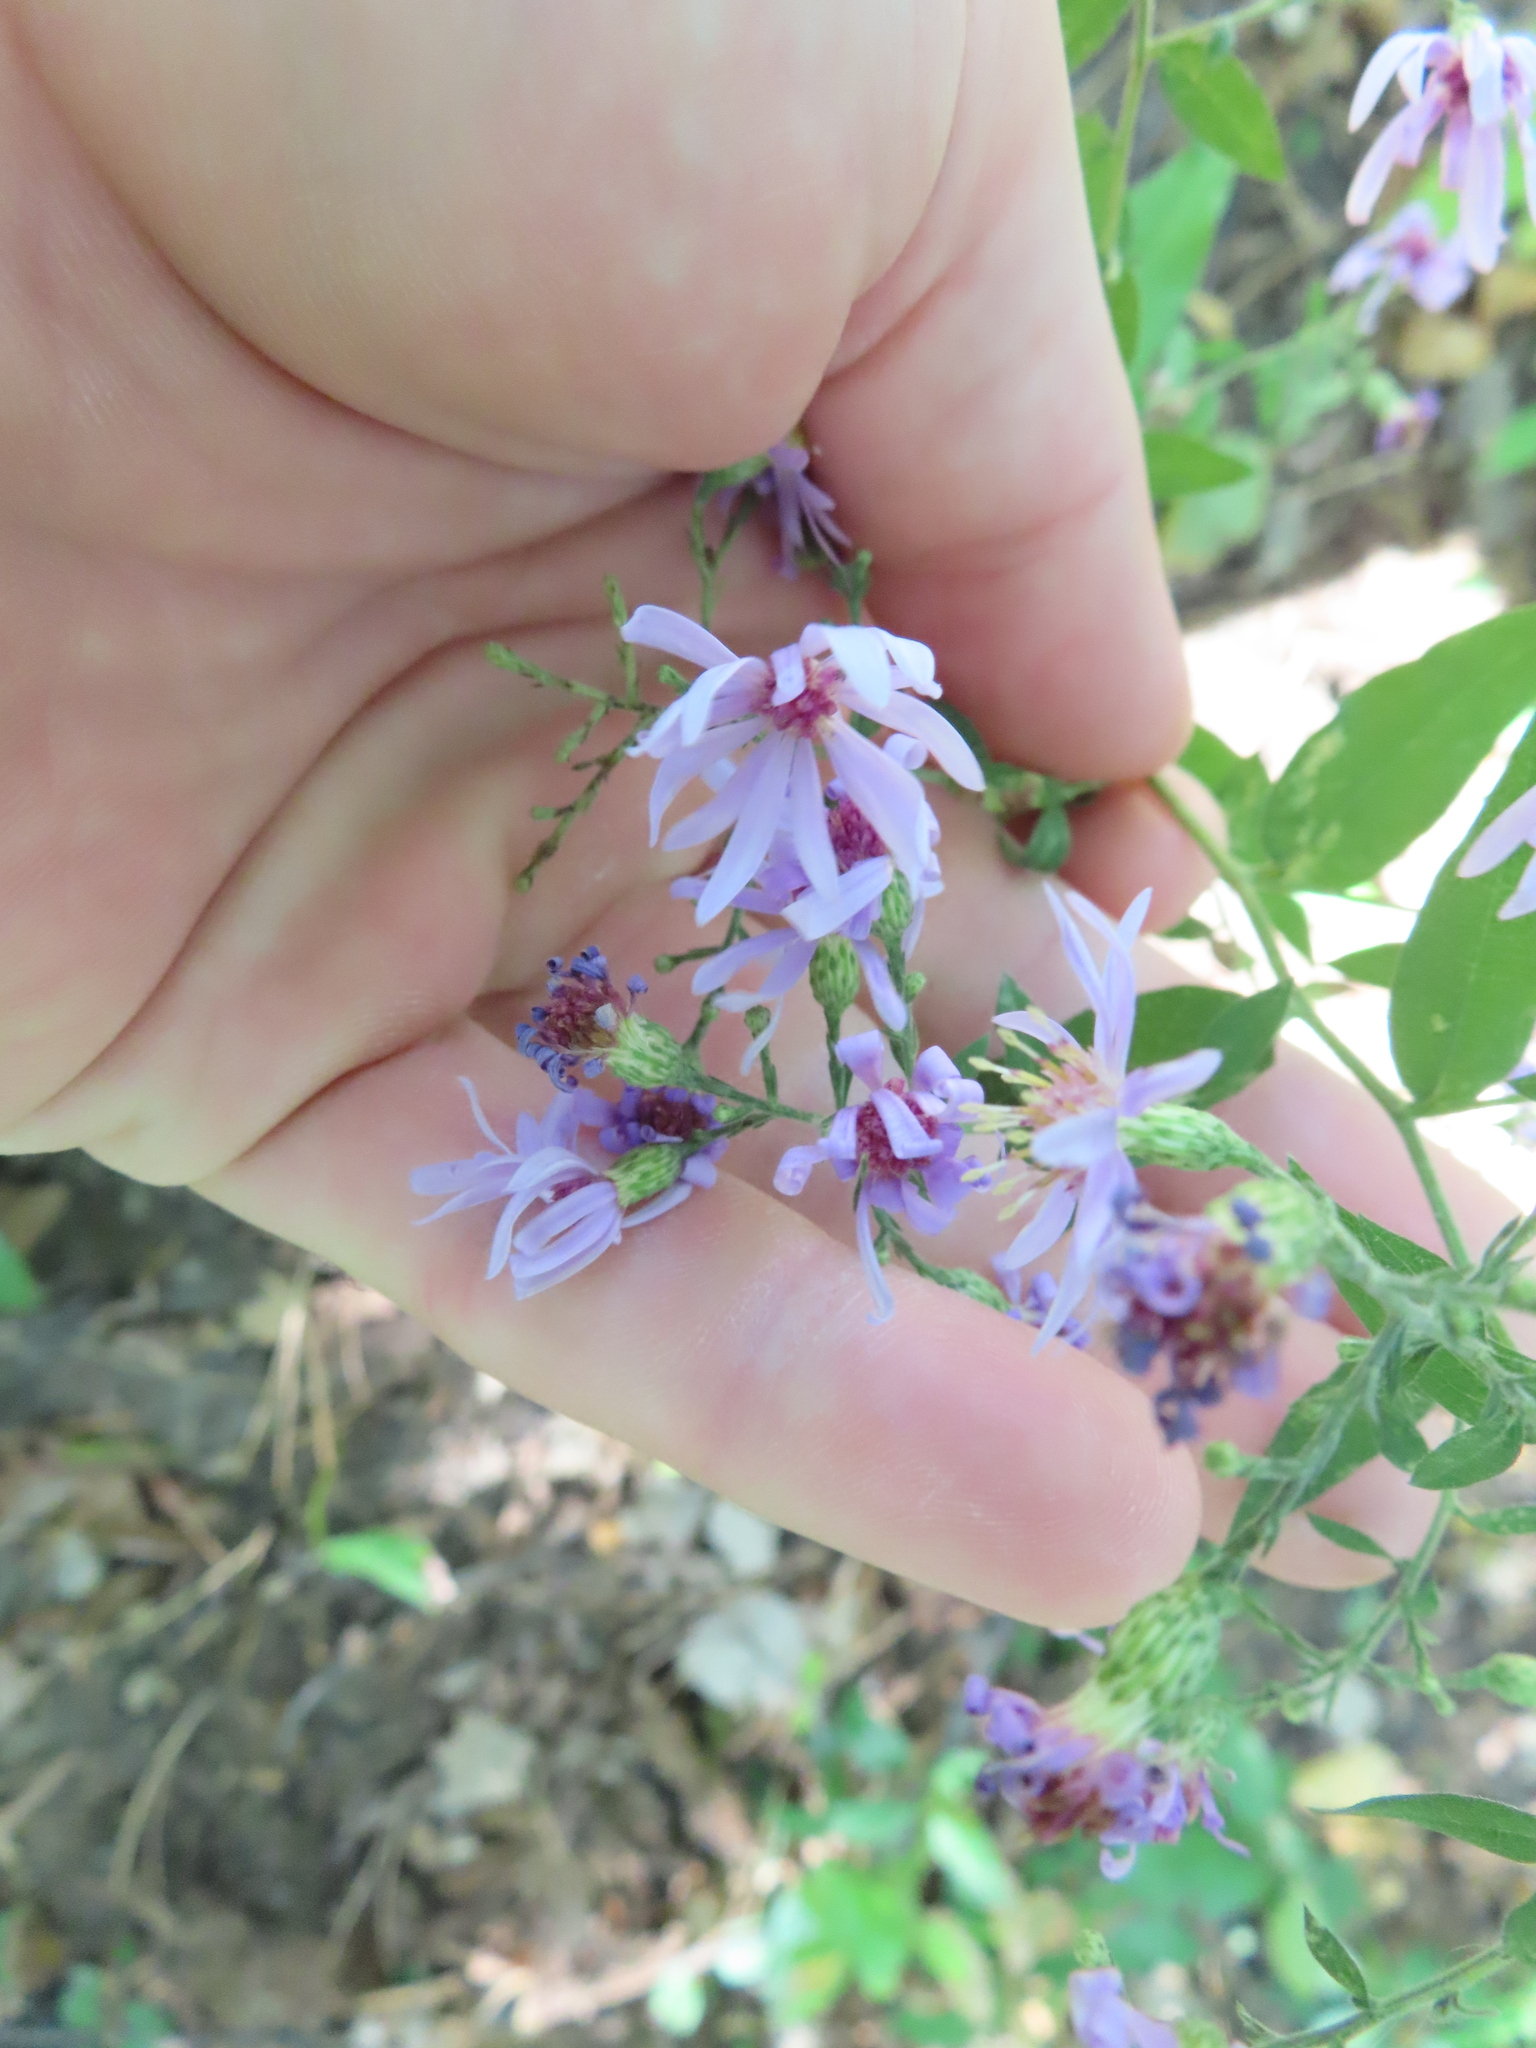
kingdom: Plantae
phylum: Tracheophyta
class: Magnoliopsida
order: Asterales
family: Asteraceae
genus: Symphyotrichum
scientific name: Symphyotrichum shortii
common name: Short's aster
